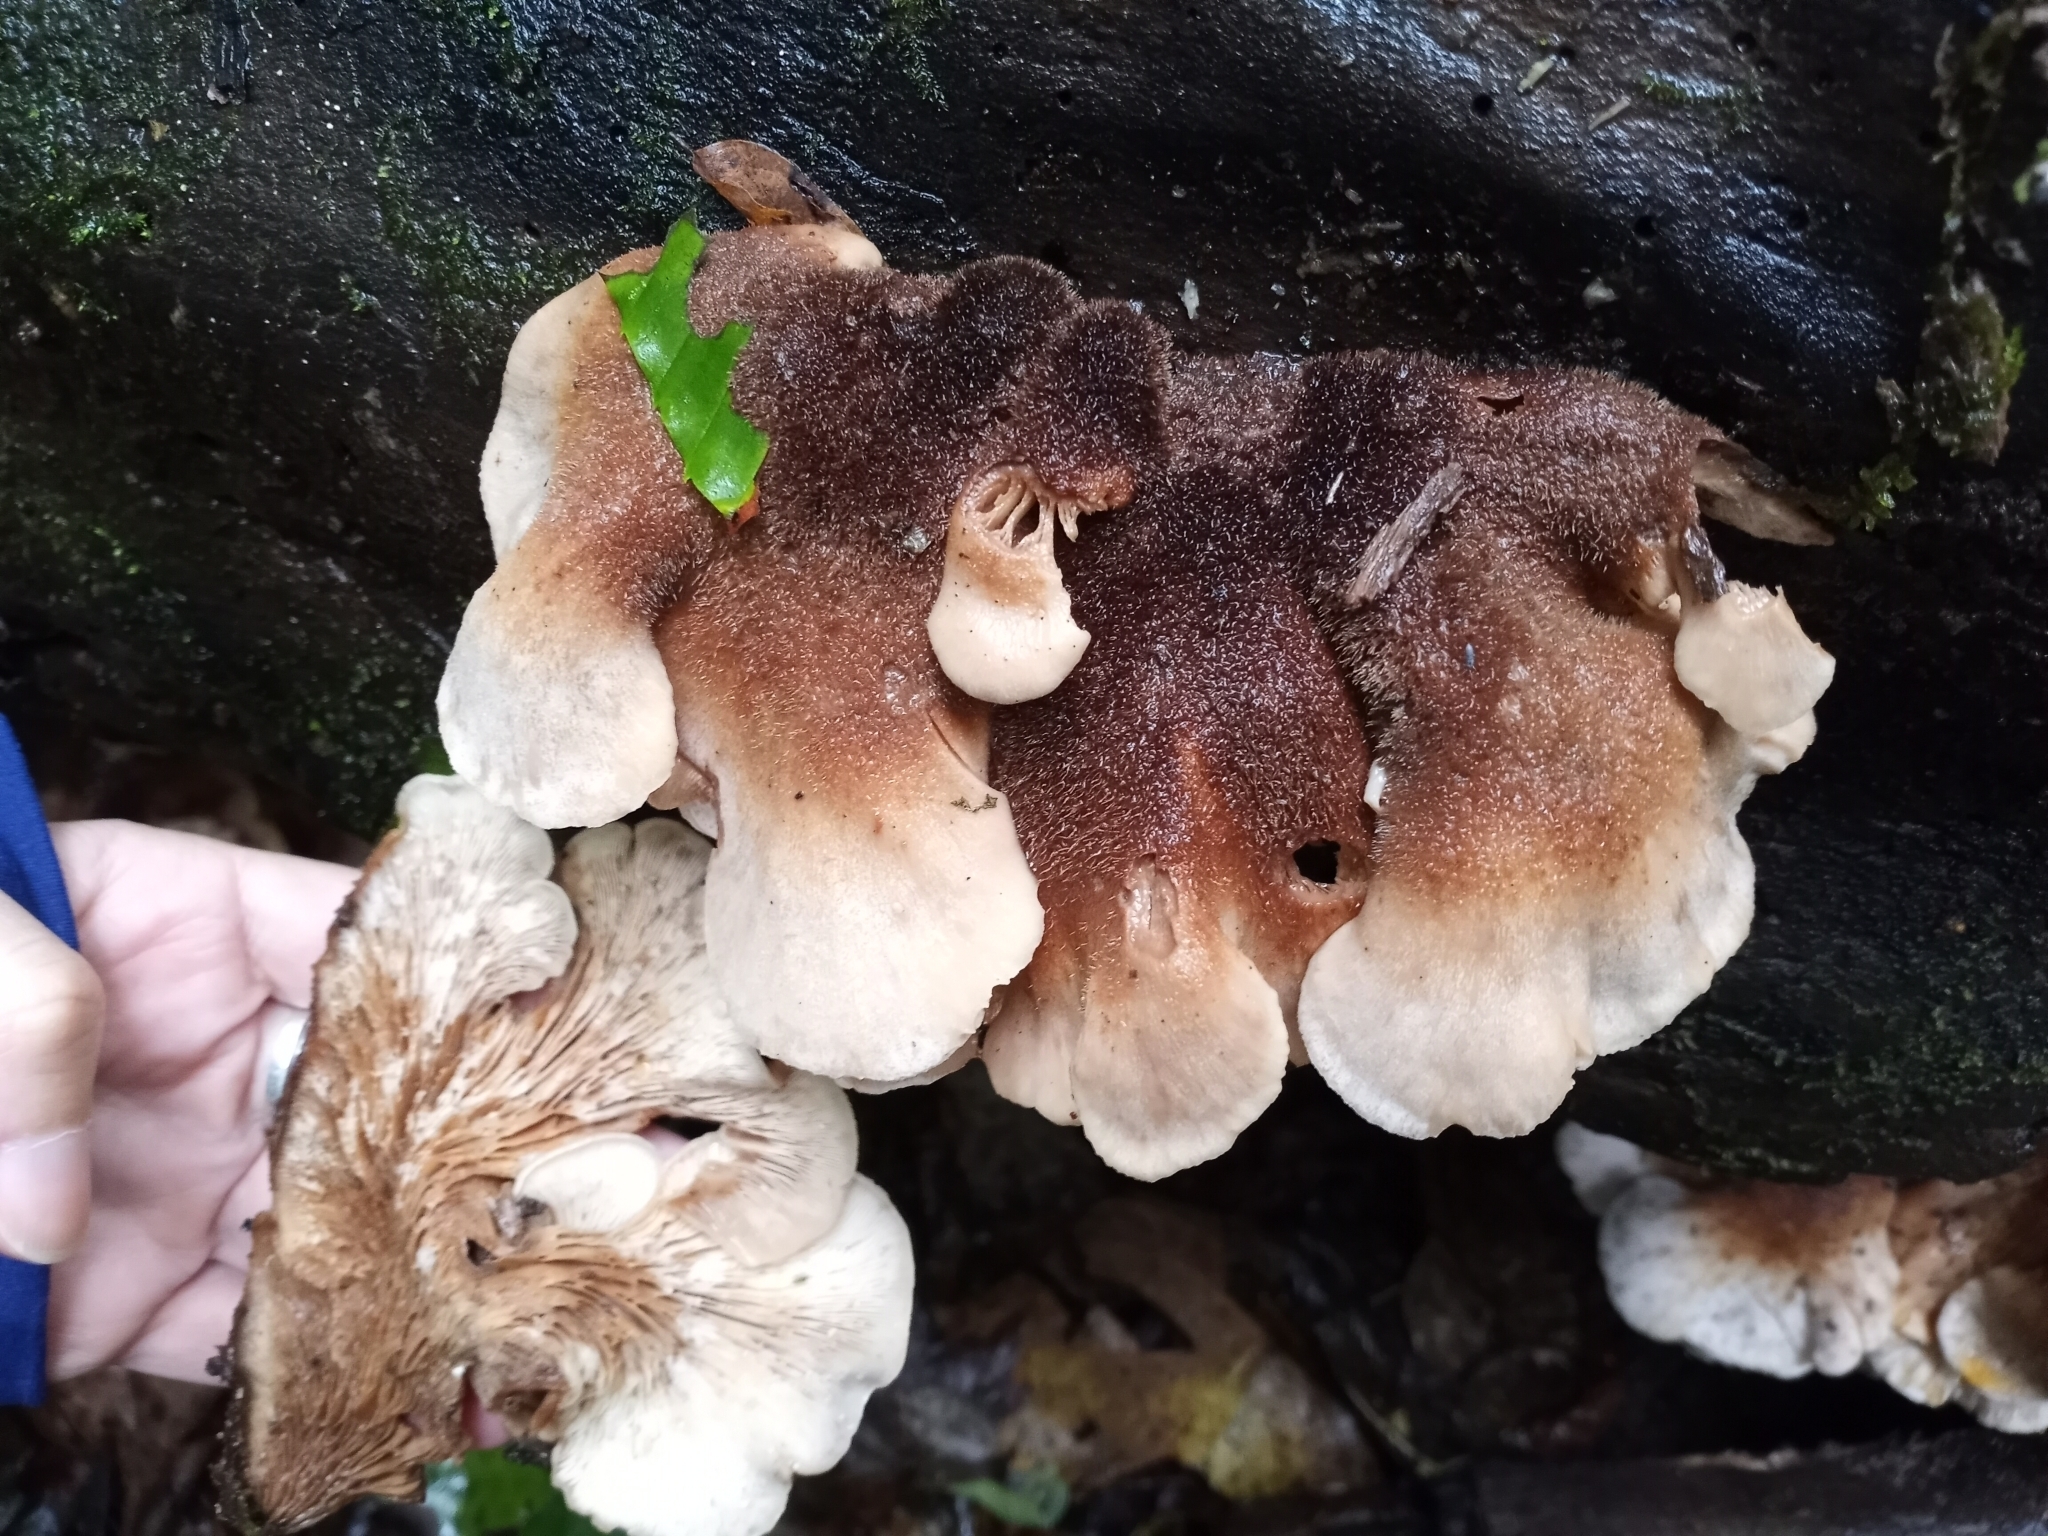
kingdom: Fungi
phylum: Basidiomycota
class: Agaricomycetes
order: Russulales
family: Auriscalpiaceae
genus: Lentinellus
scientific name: Lentinellus ursinus
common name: Bear lentinus
